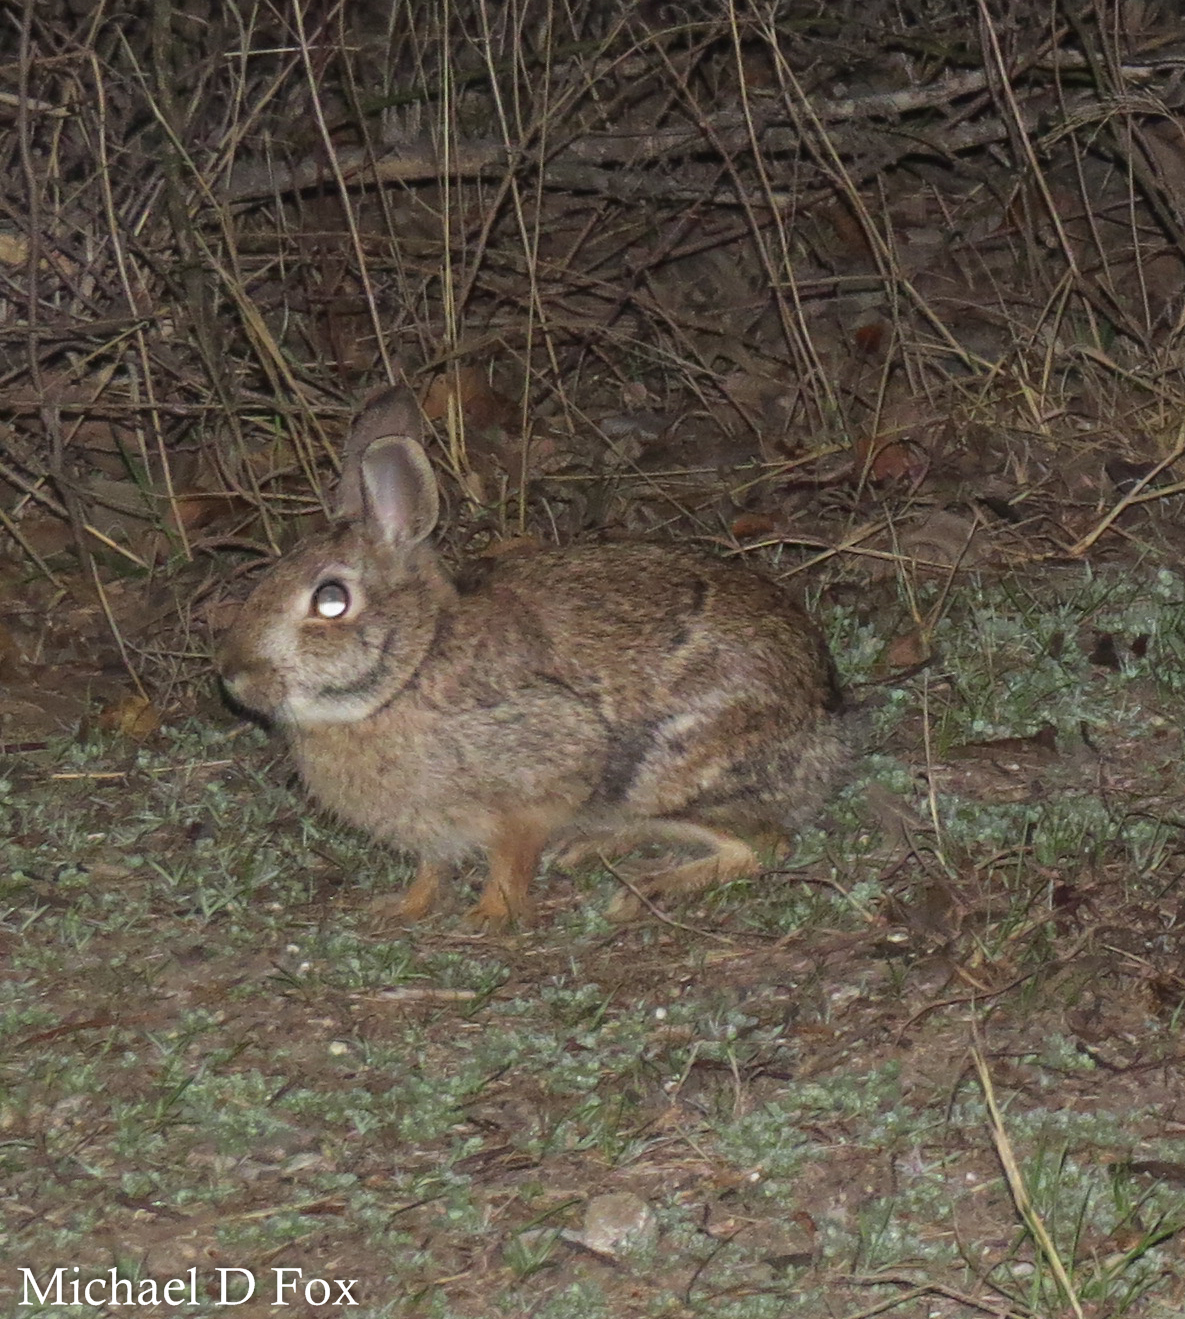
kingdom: Animalia
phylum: Chordata
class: Mammalia
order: Lagomorpha
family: Leporidae
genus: Sylvilagus
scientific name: Sylvilagus floridanus
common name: Eastern cottontail
